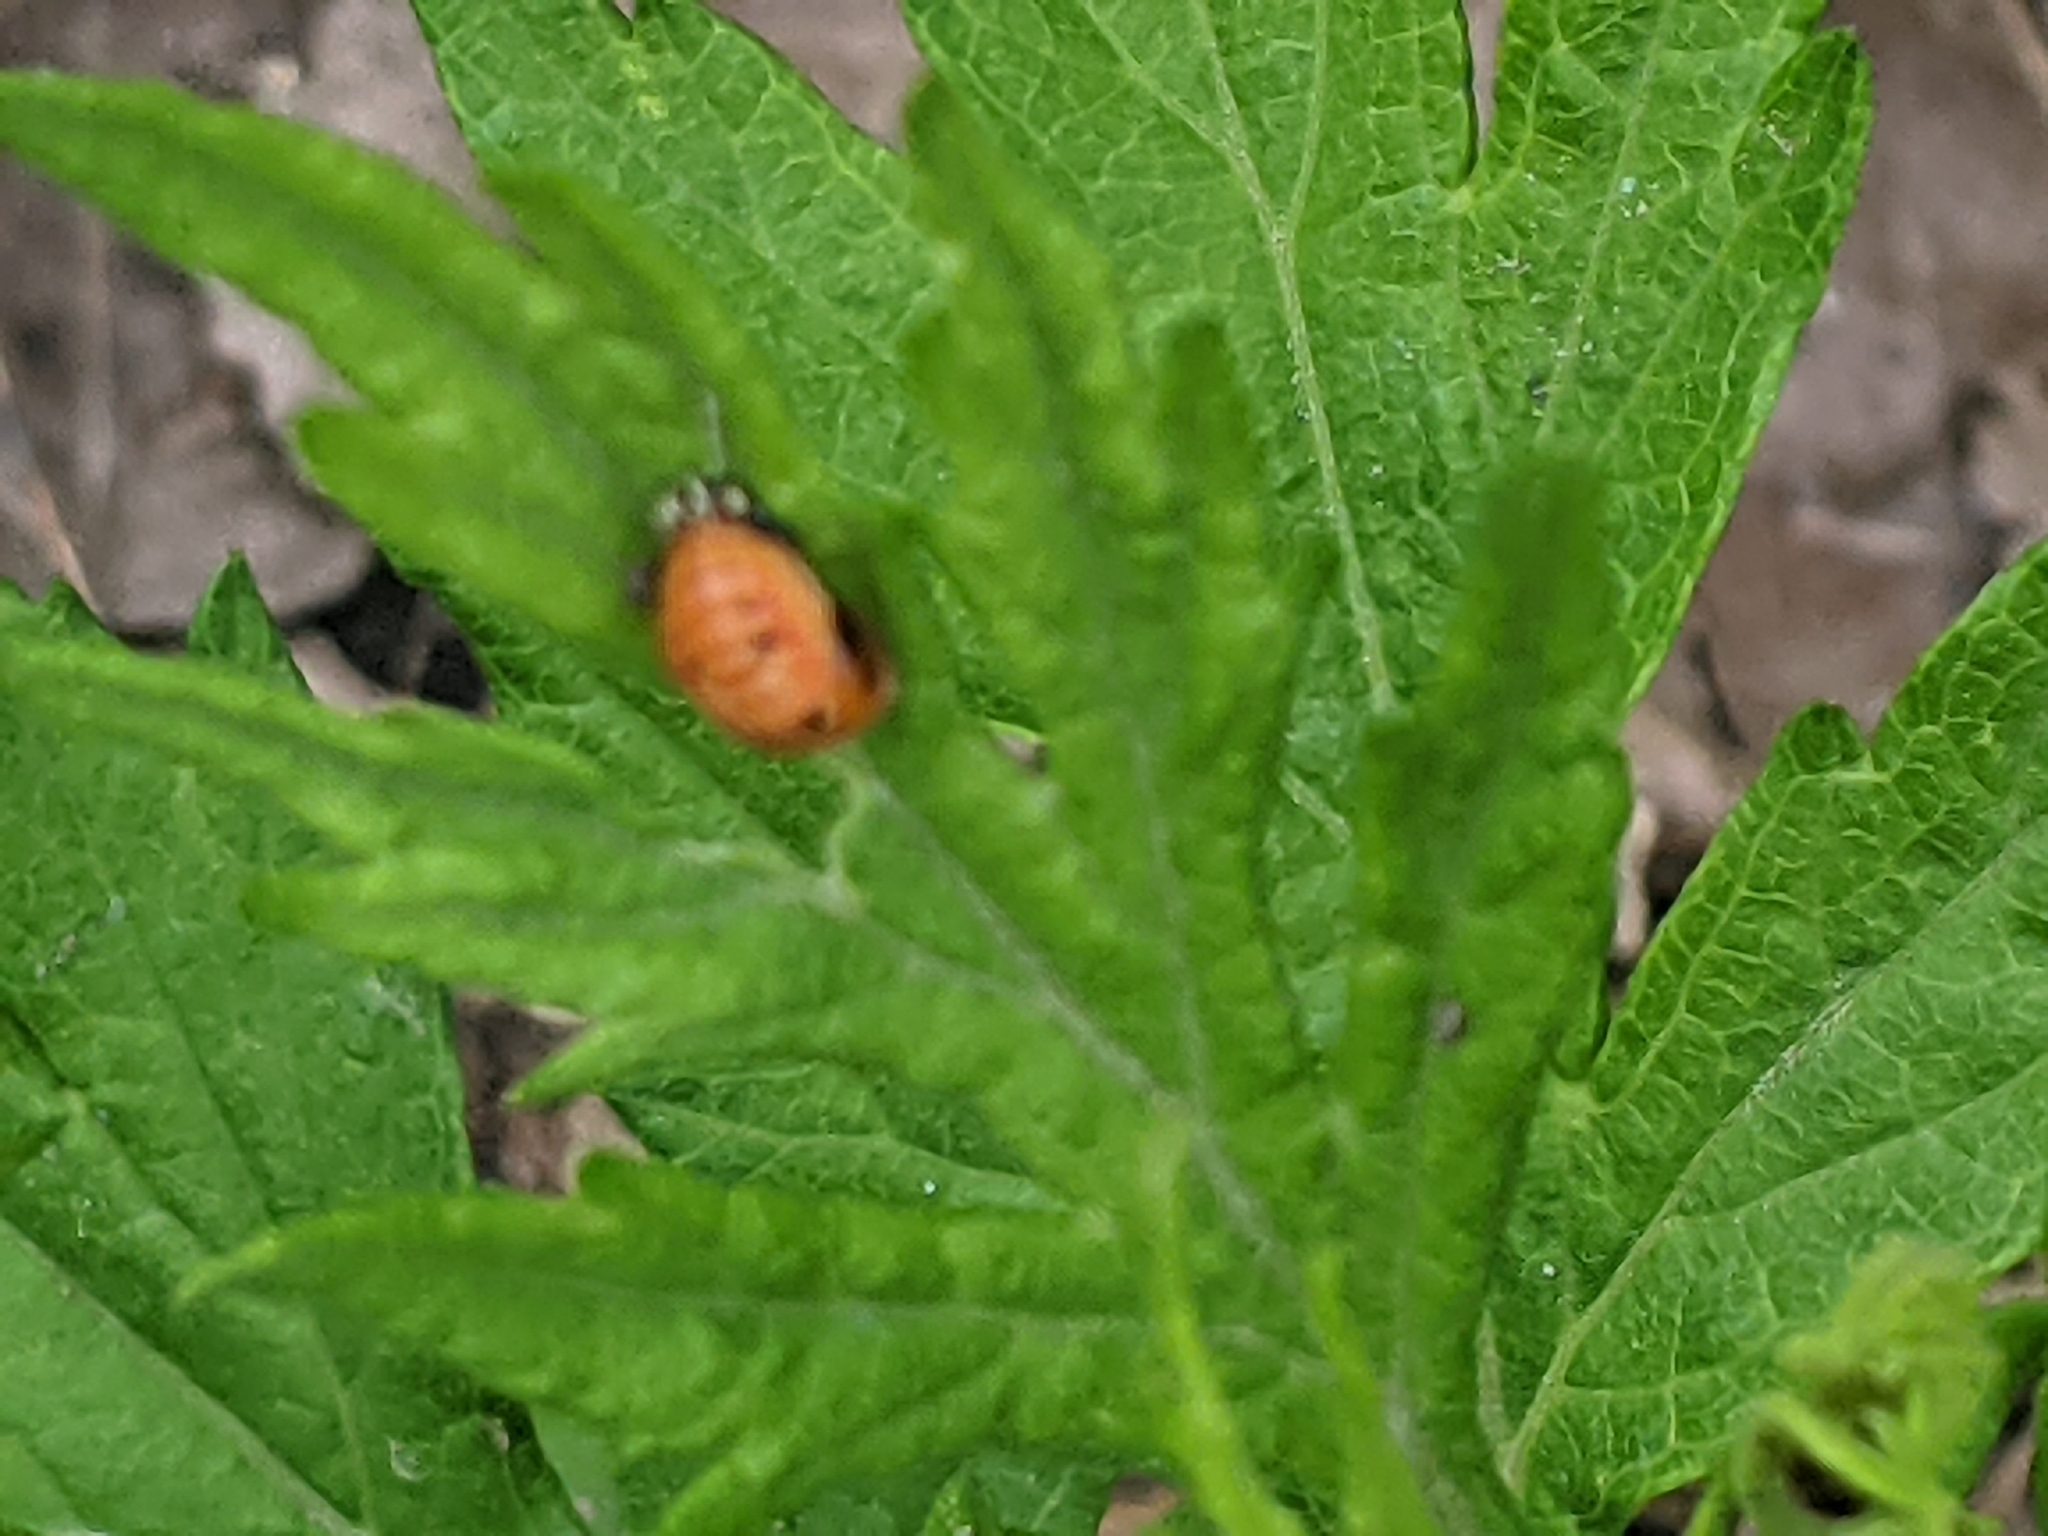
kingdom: Animalia
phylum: Arthropoda
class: Insecta
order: Coleoptera
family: Coccinellidae
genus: Harmonia
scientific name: Harmonia axyridis
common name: Harlequin ladybird
